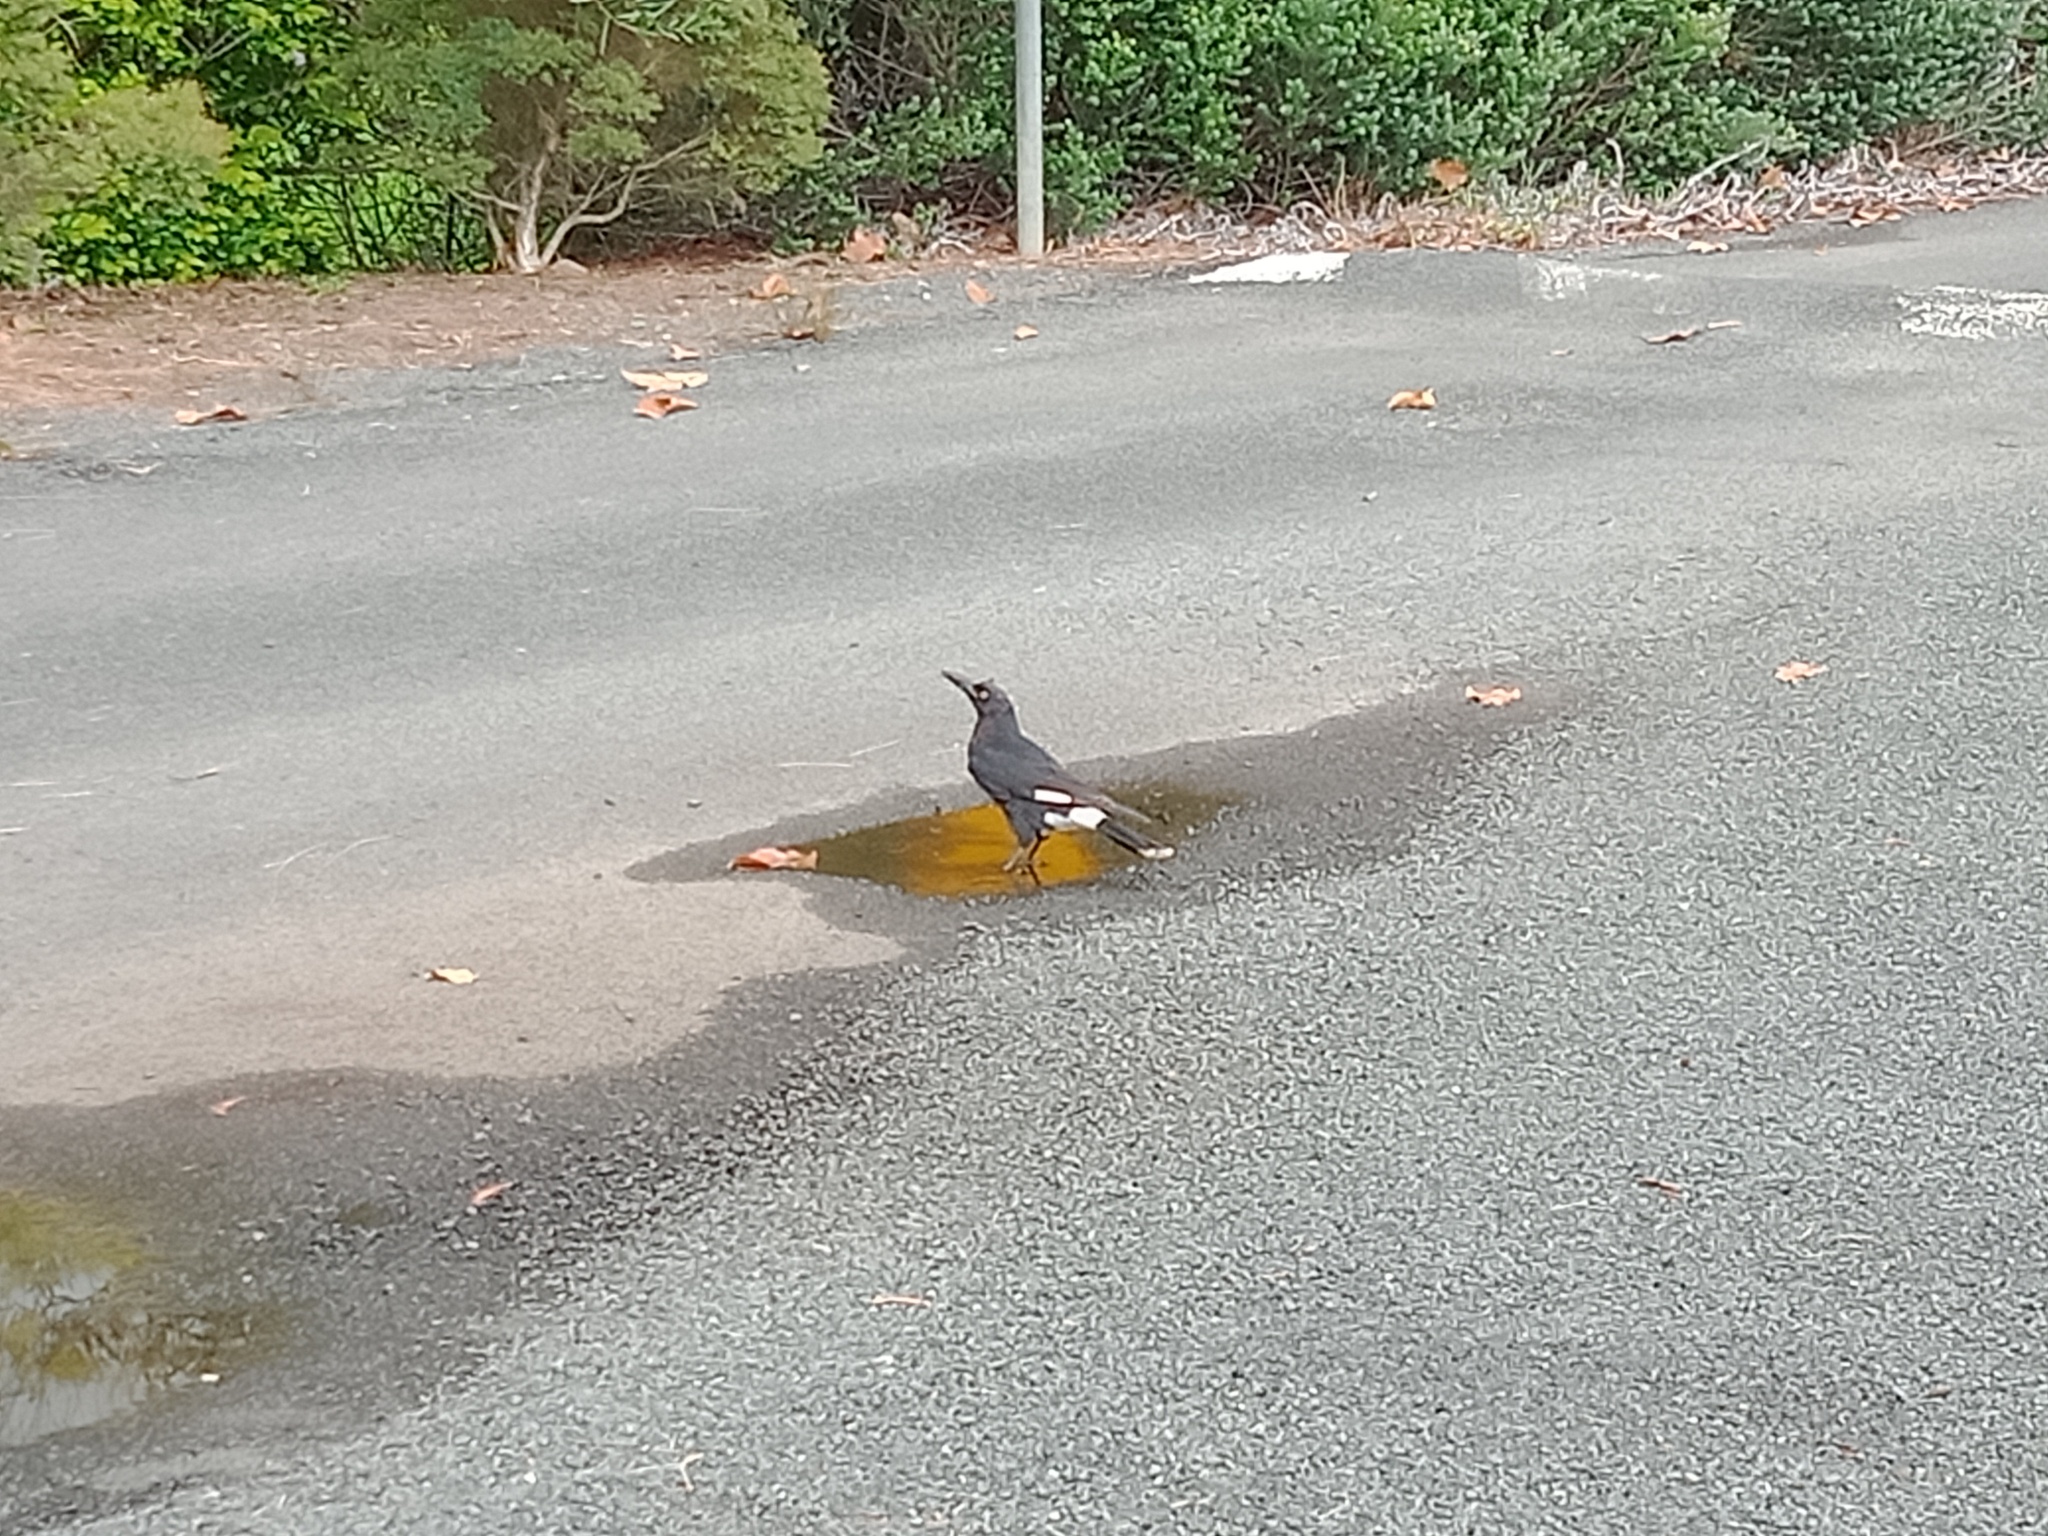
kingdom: Animalia
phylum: Chordata
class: Aves
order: Passeriformes
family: Cracticidae
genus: Strepera
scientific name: Strepera graculina
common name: Pied currawong
